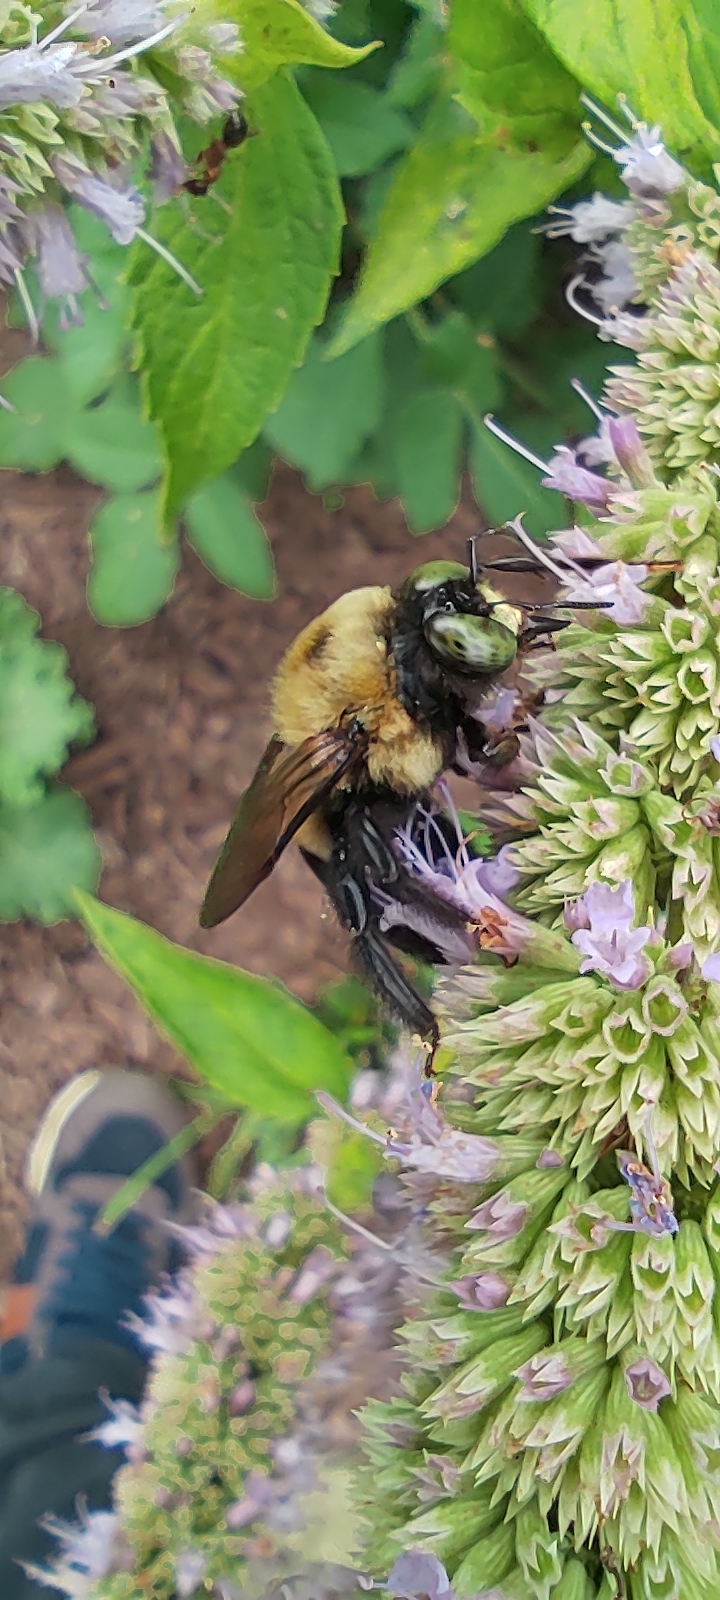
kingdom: Animalia
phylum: Arthropoda
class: Insecta
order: Hymenoptera
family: Apidae
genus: Xylocopa
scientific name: Xylocopa virginica
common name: Carpenter bee
